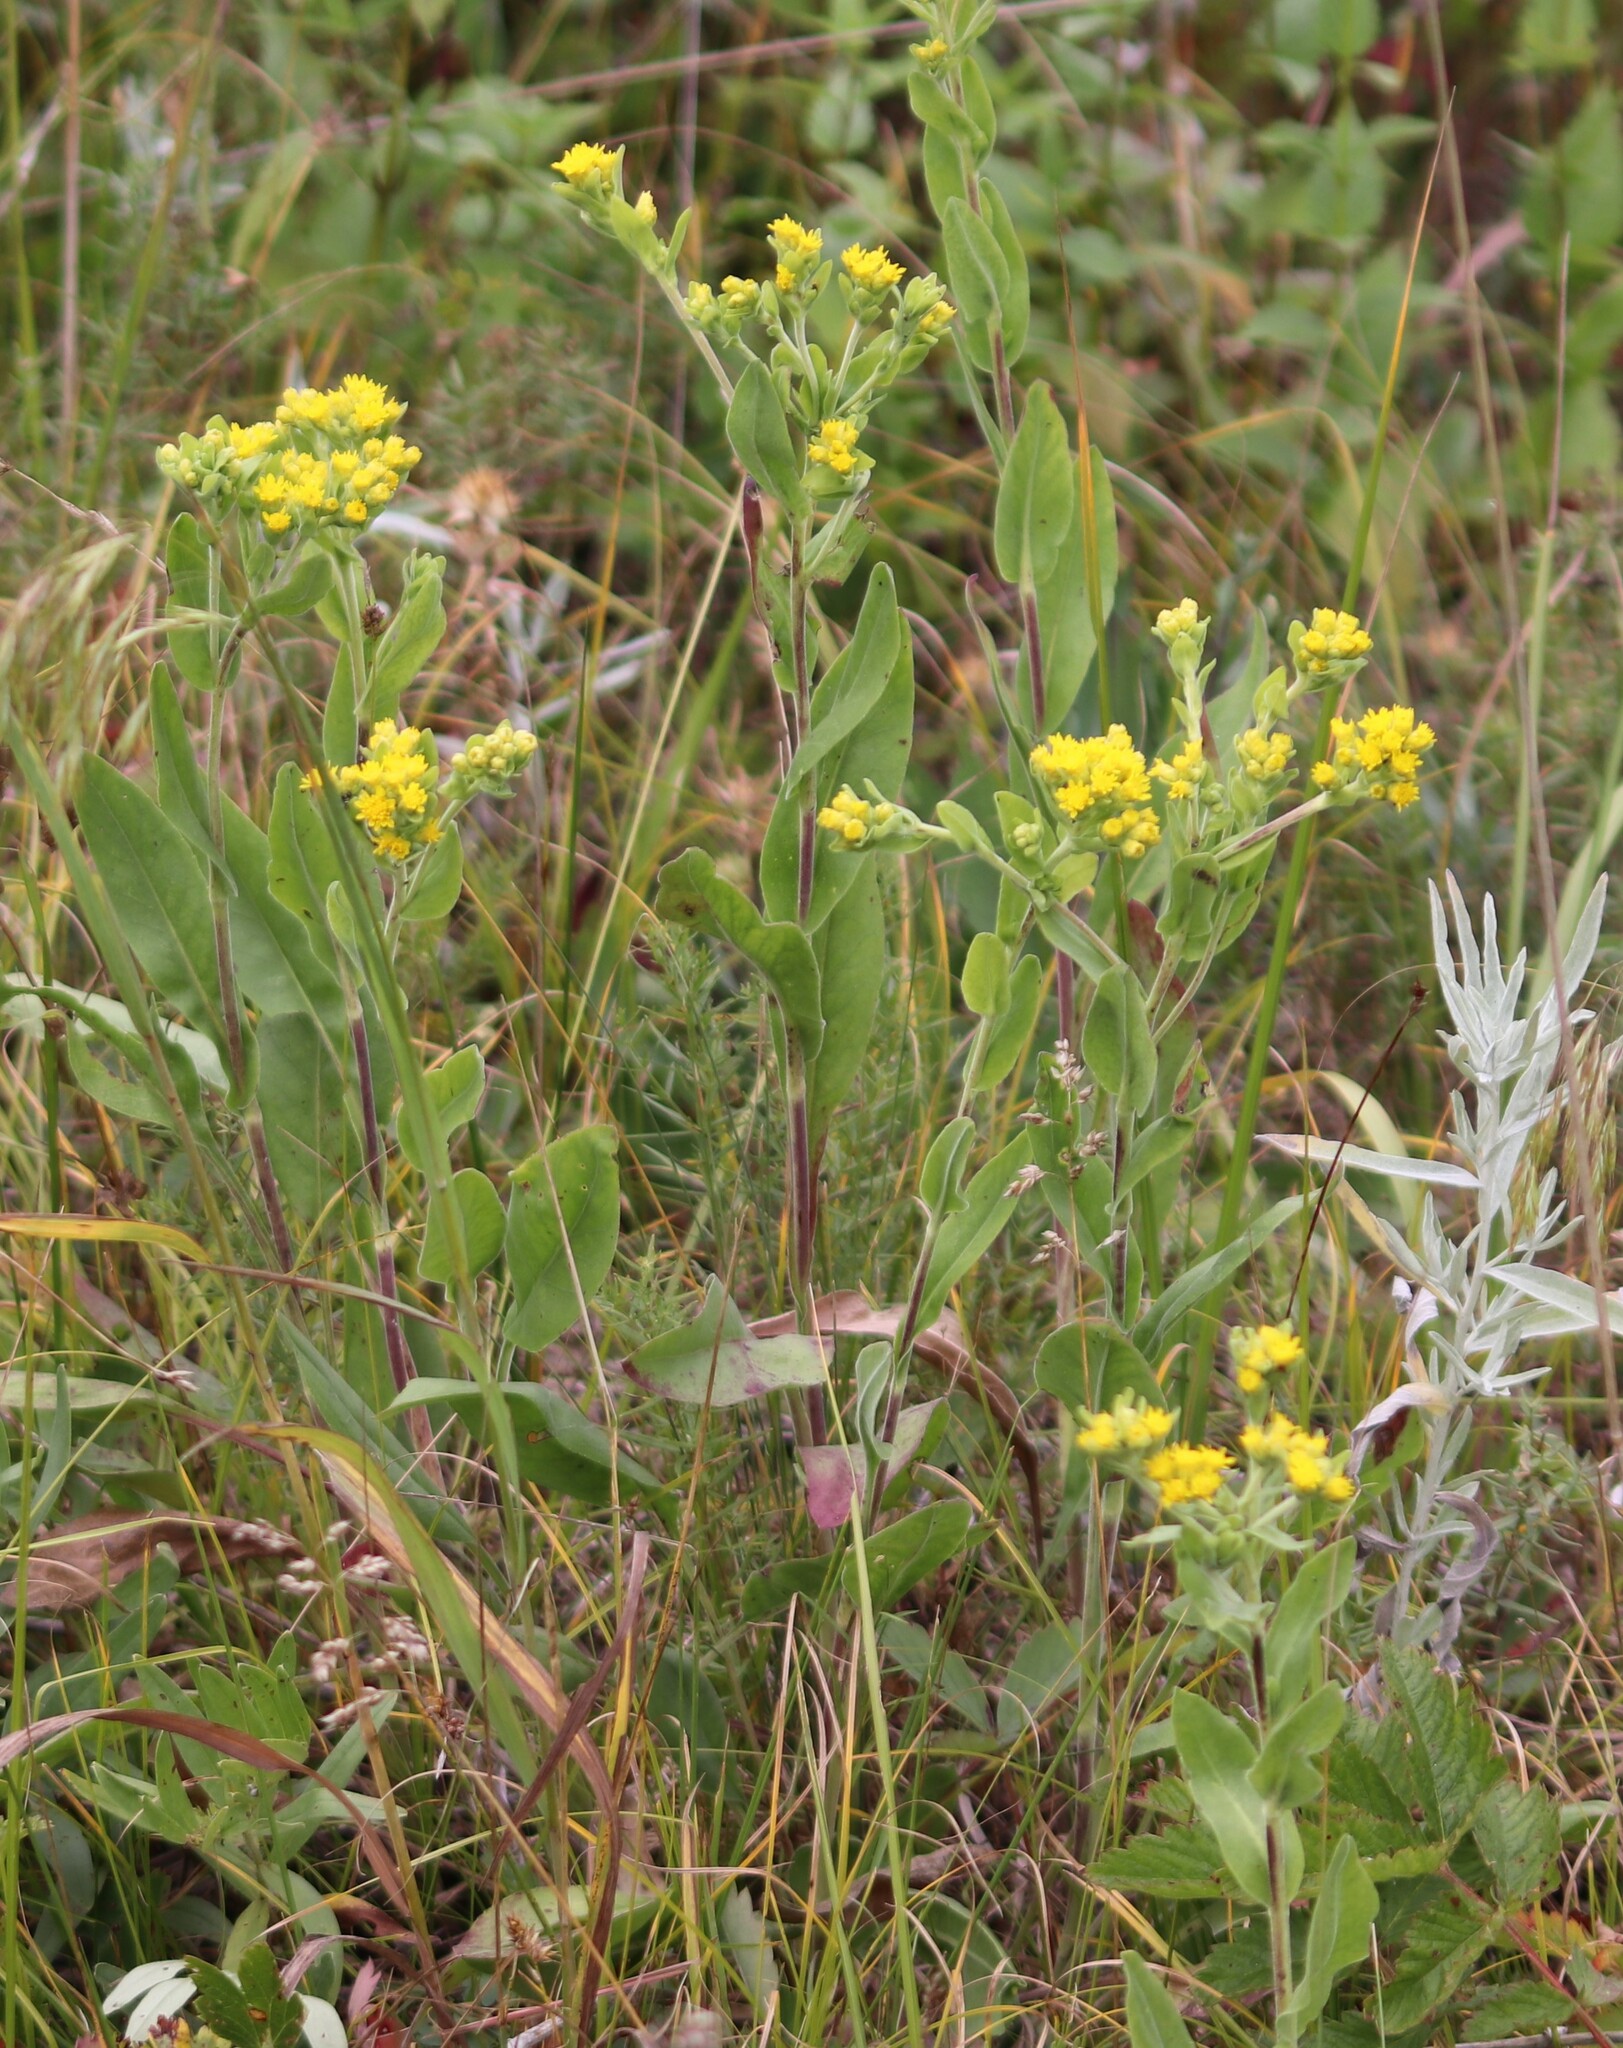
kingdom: Plantae
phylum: Tracheophyta
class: Magnoliopsida
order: Asterales
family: Asteraceae
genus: Solidago
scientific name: Solidago rigida
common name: Rigid goldenrod
